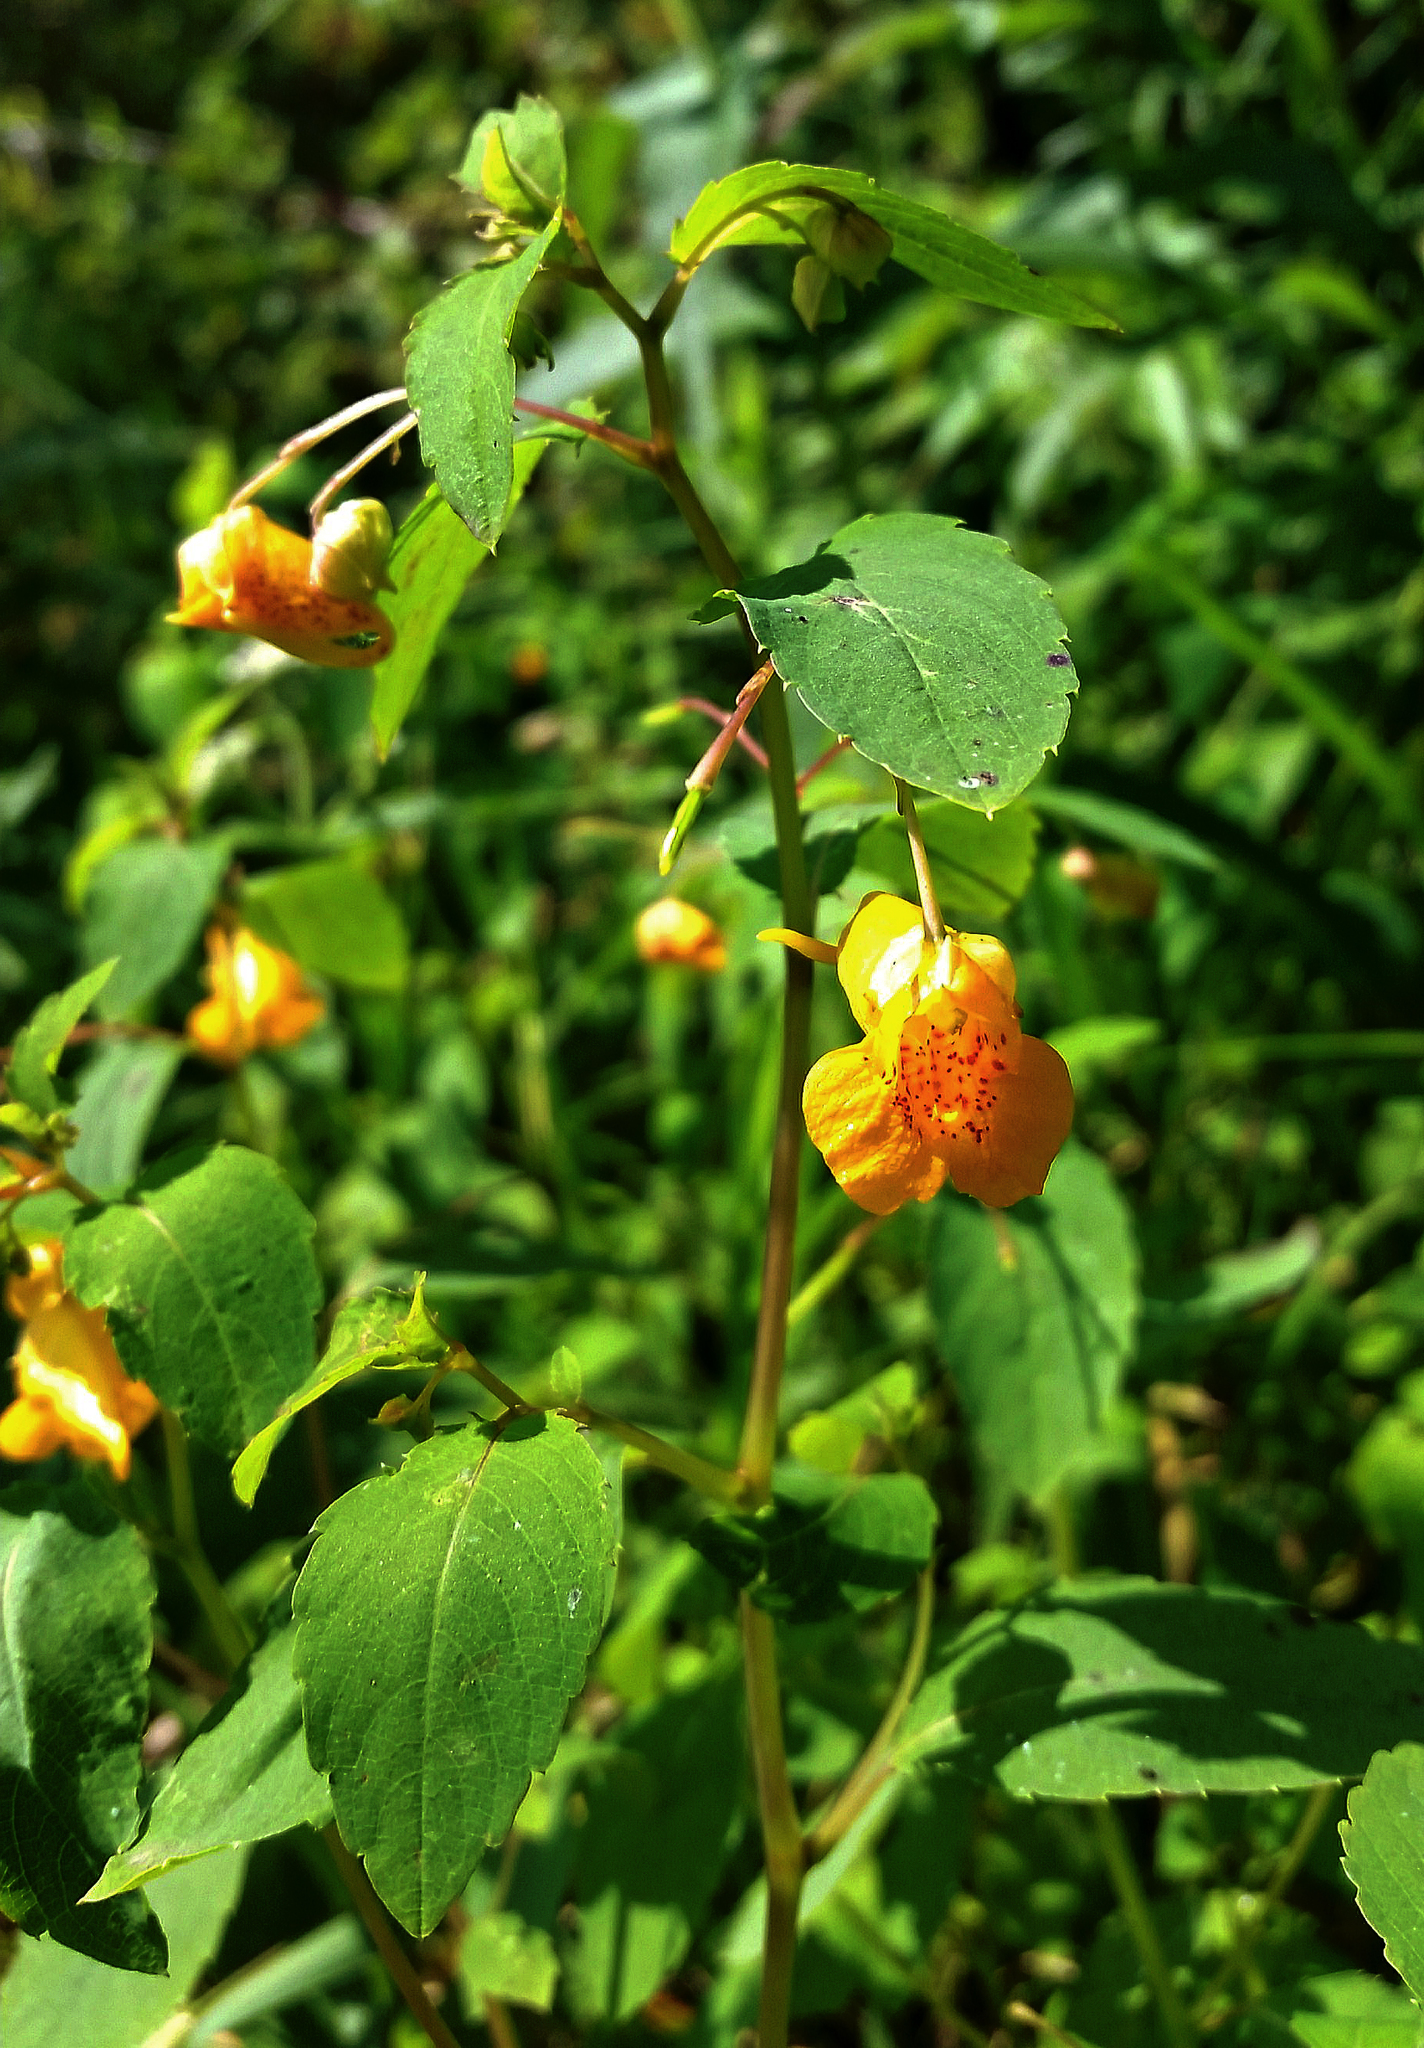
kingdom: Plantae
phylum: Tracheophyta
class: Magnoliopsida
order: Ericales
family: Balsaminaceae
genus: Impatiens
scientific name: Impatiens capensis
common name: Orange balsam
